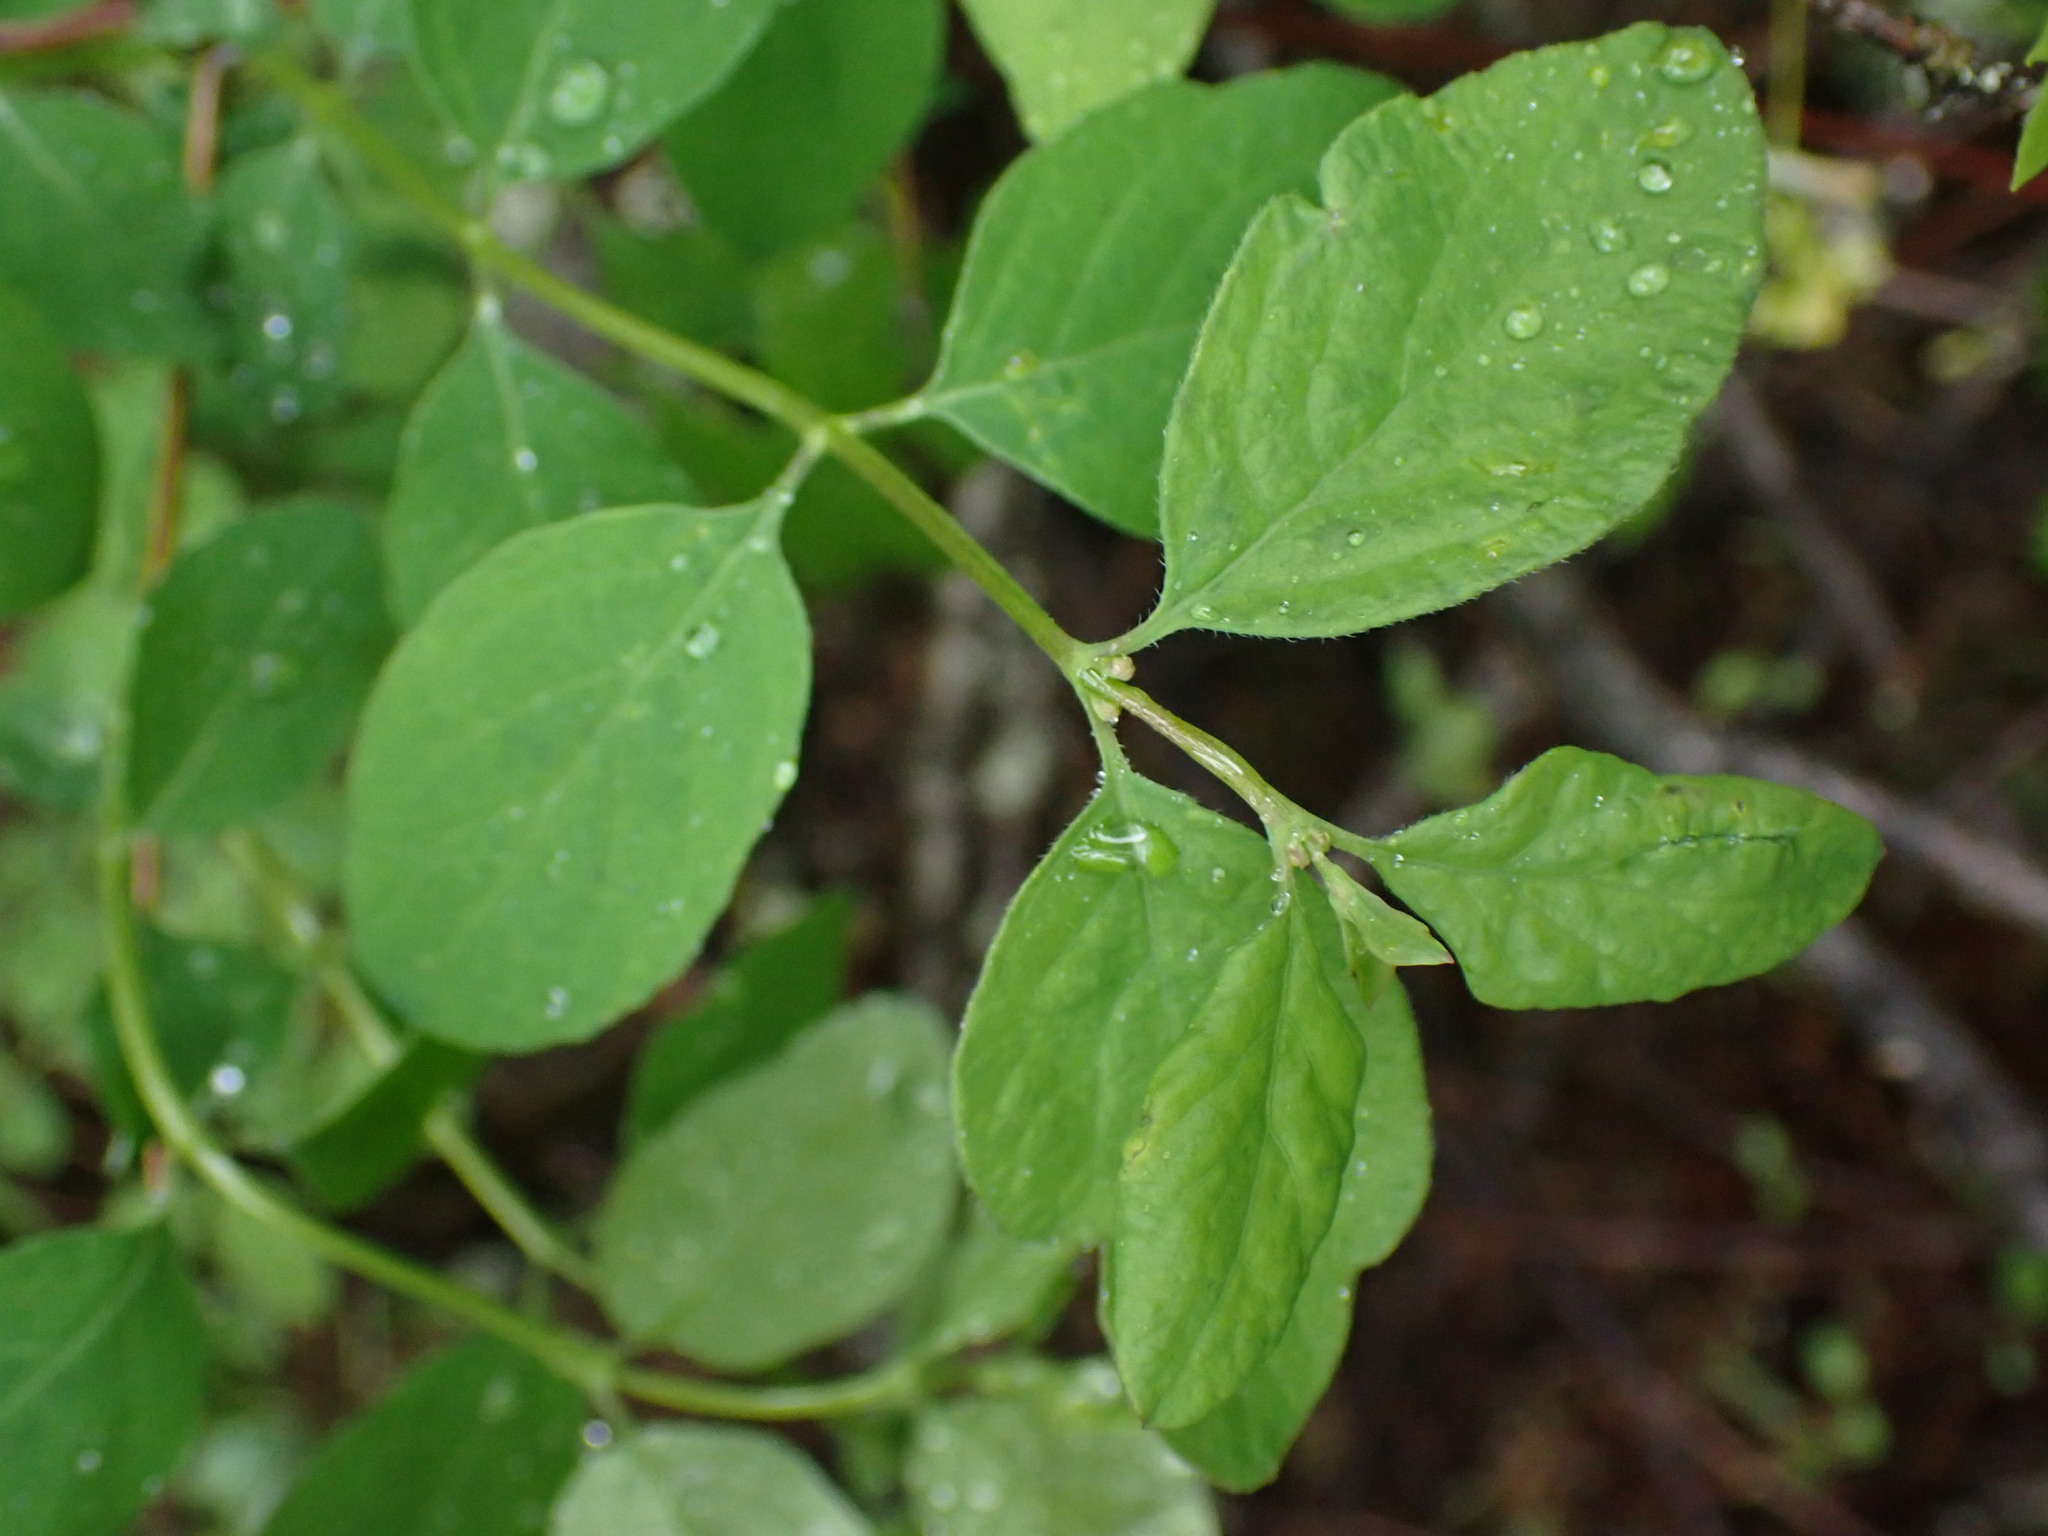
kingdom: Plantae
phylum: Tracheophyta
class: Magnoliopsida
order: Dipsacales
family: Caprifoliaceae
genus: Lonicera
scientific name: Lonicera utahensis
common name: Utah honeysuckle
